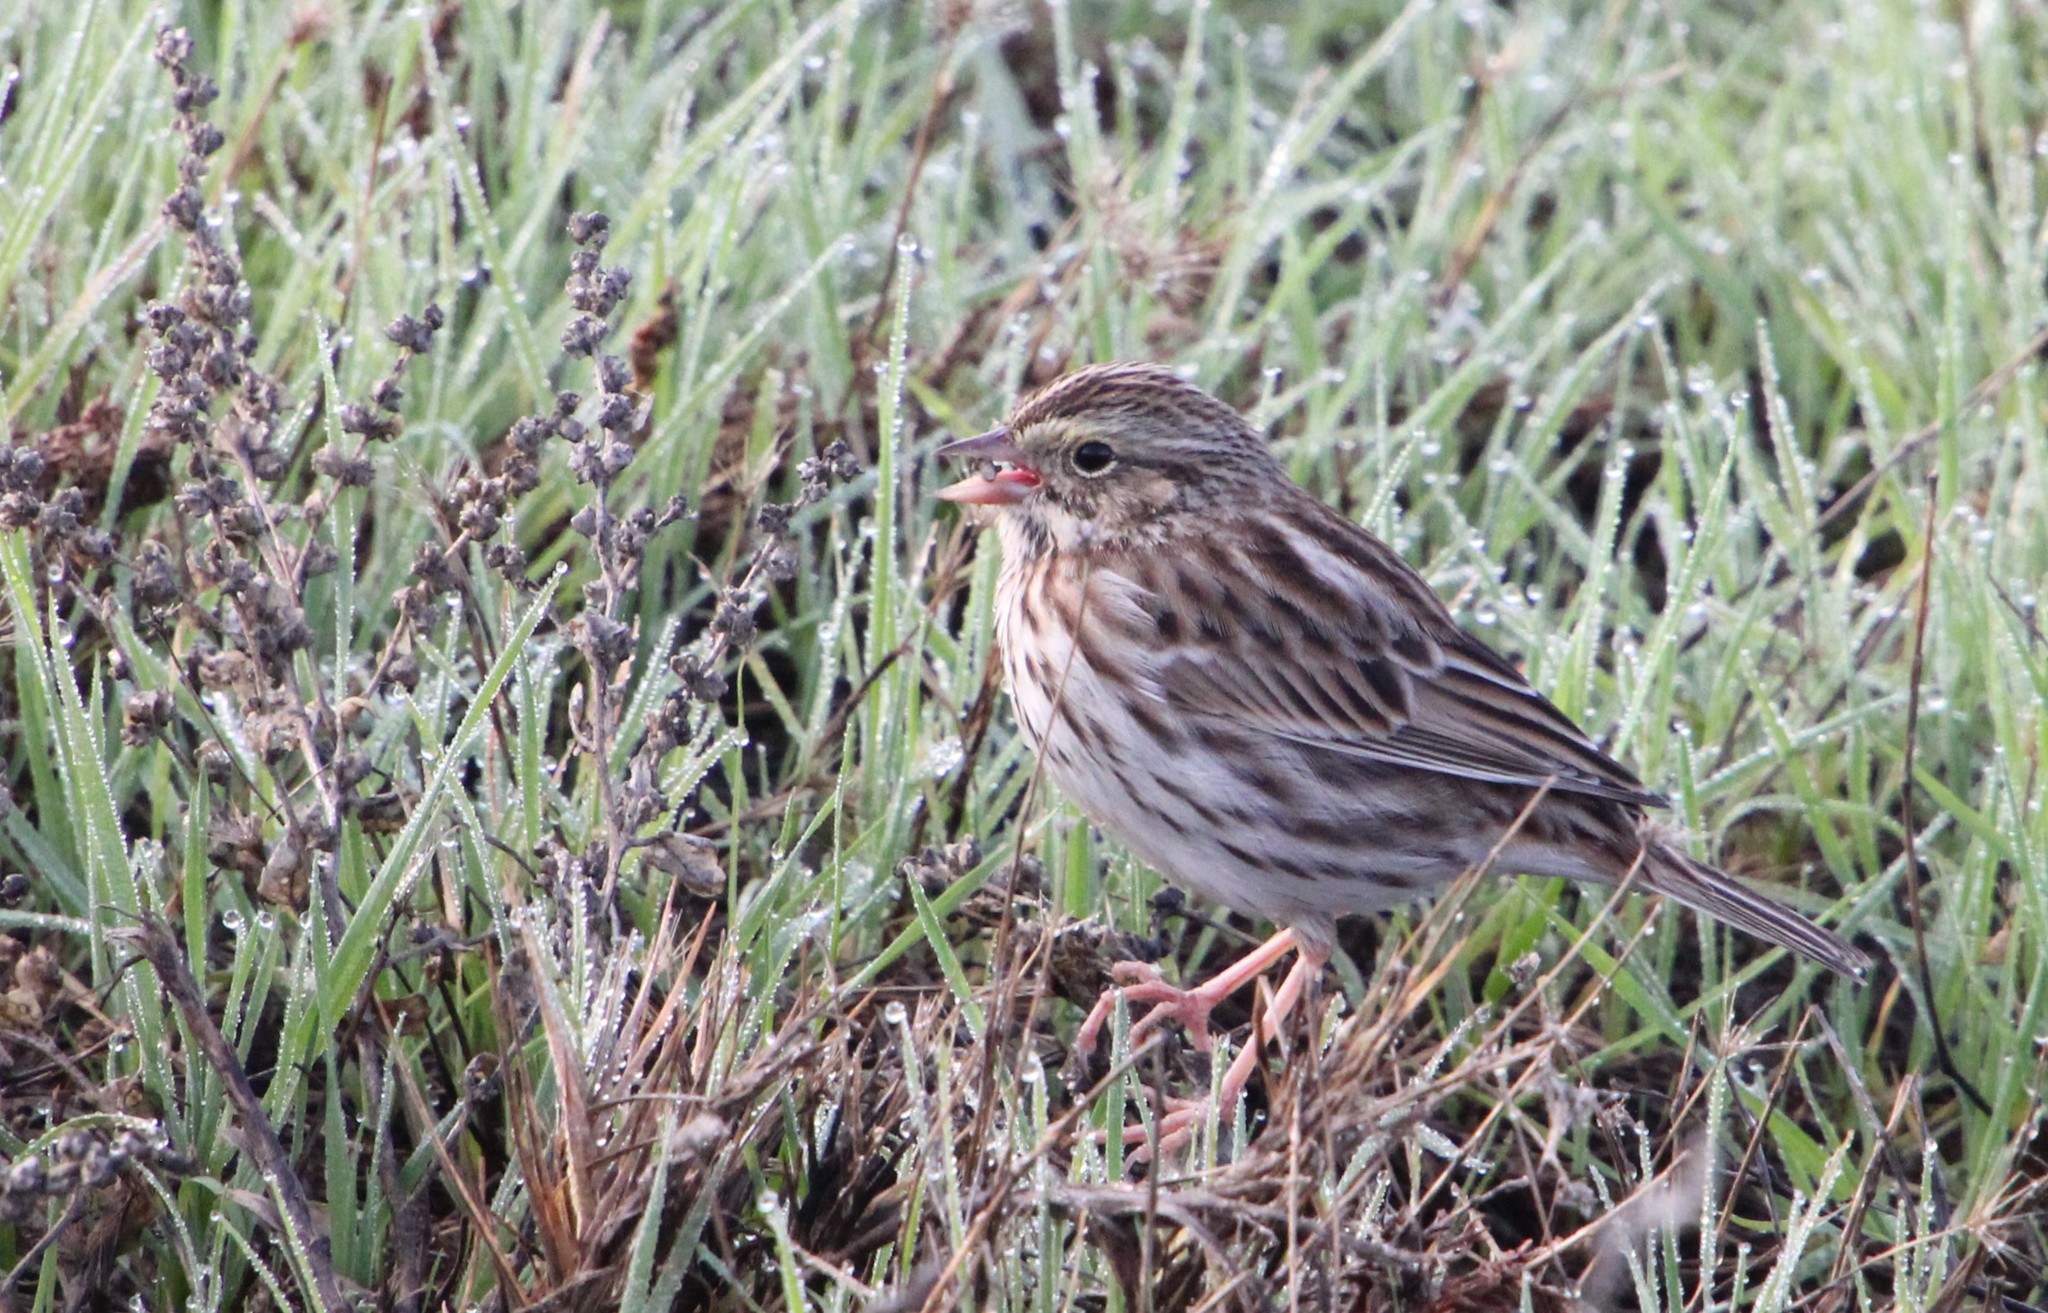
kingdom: Animalia
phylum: Chordata
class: Aves
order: Passeriformes
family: Passerellidae
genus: Passerculus
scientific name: Passerculus sandwichensis
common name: Savannah sparrow
